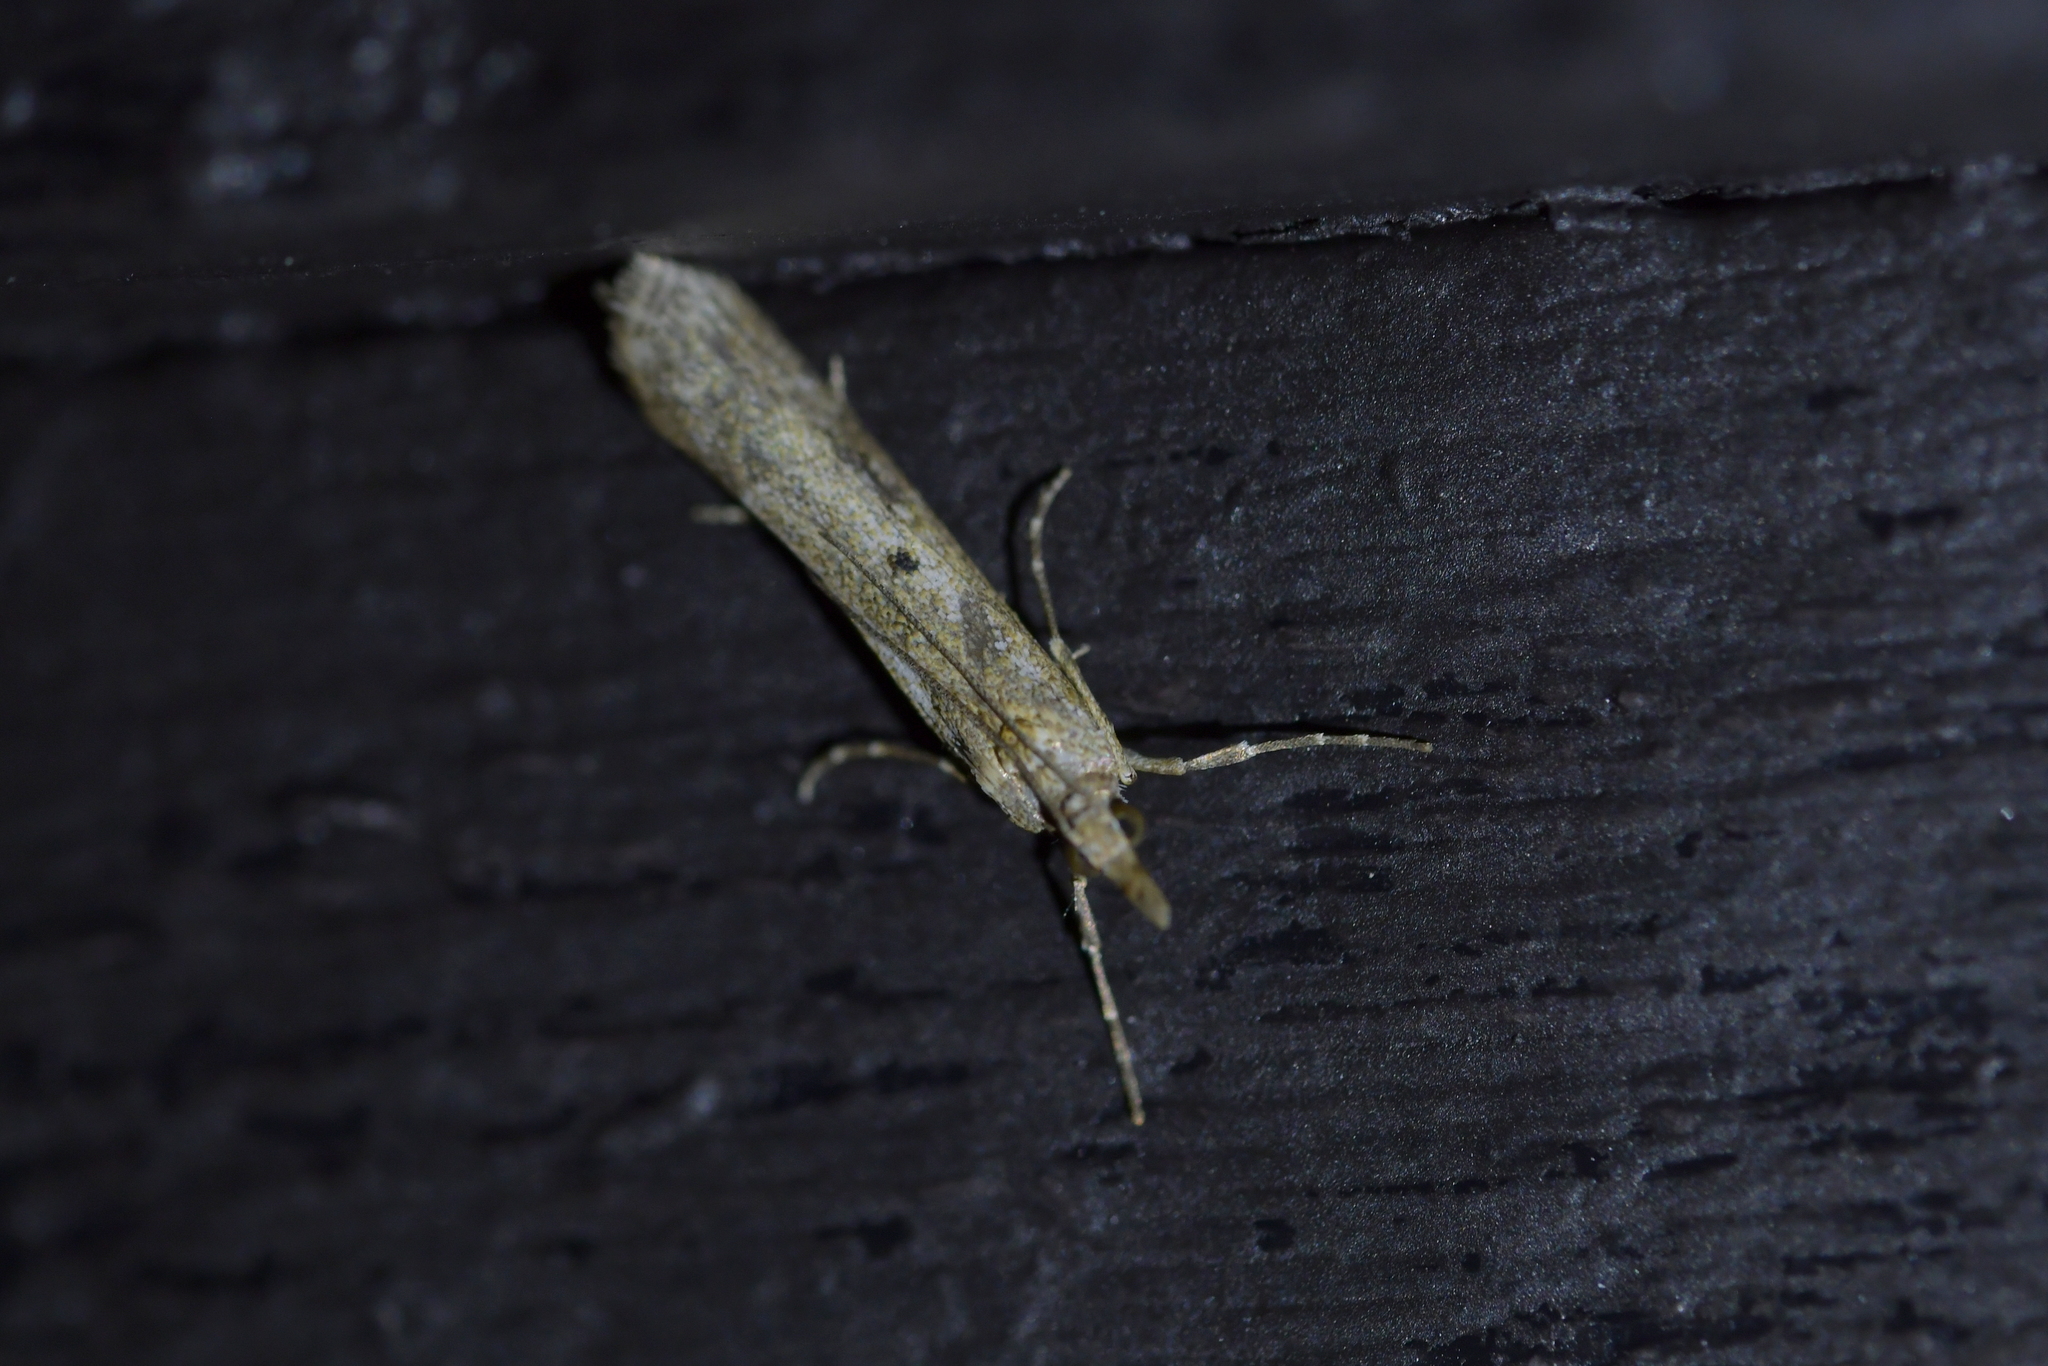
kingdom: Animalia
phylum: Arthropoda
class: Insecta
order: Lepidoptera
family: Crambidae
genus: Eudonia
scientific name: Eudonia leptalea
